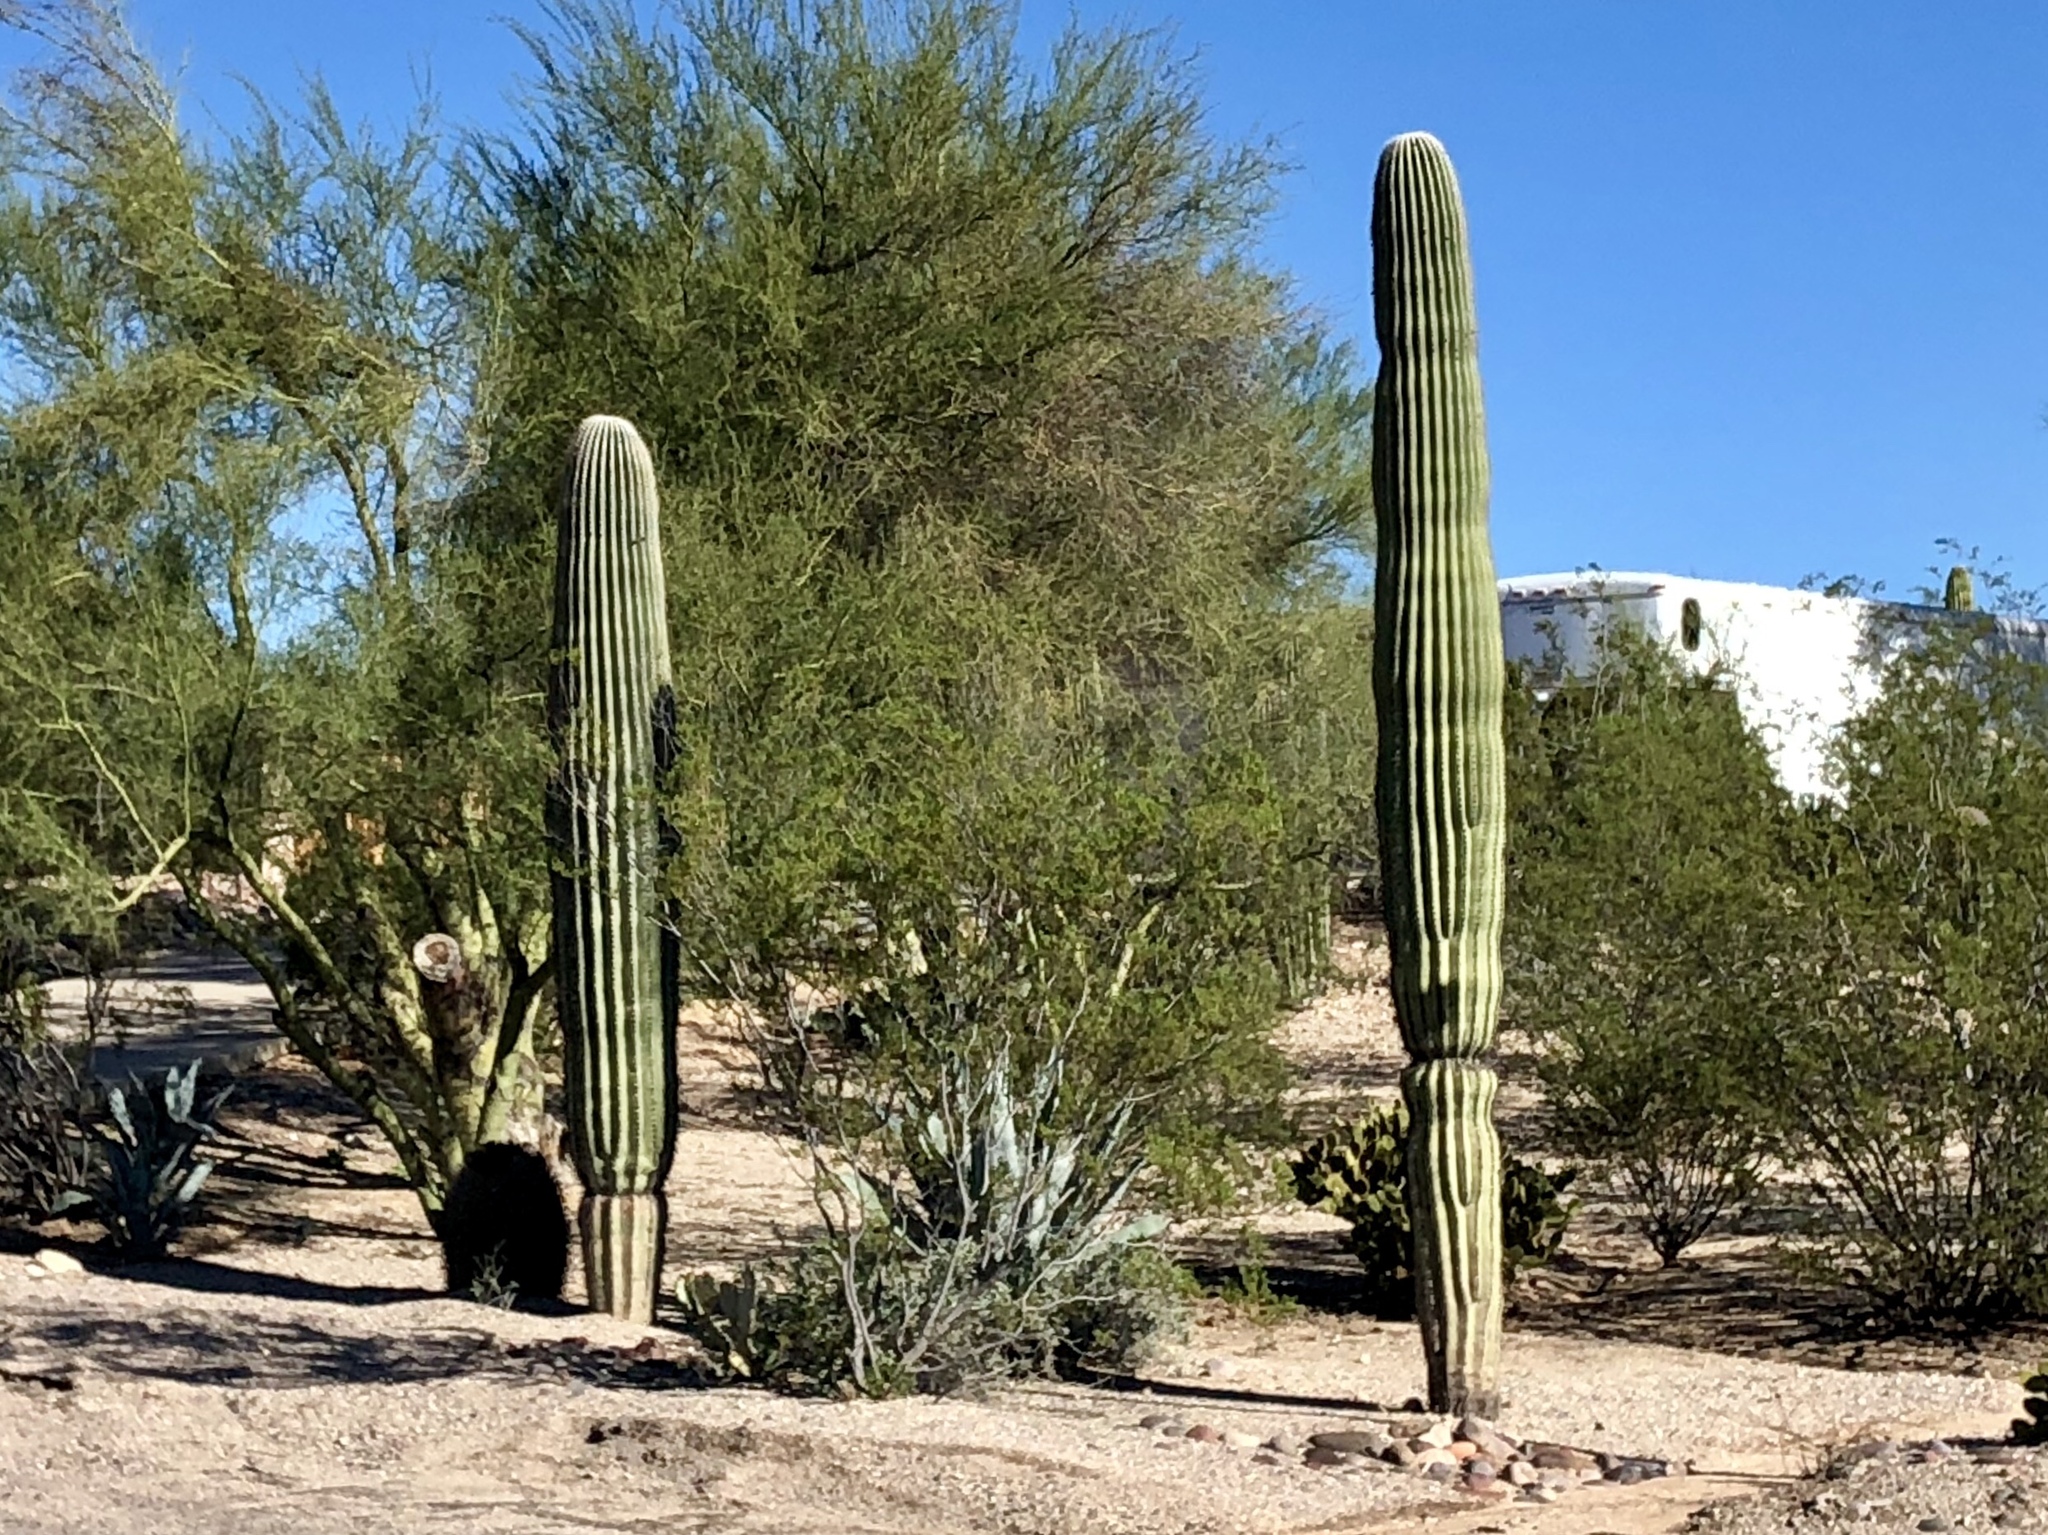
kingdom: Plantae
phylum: Tracheophyta
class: Magnoliopsida
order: Caryophyllales
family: Cactaceae
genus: Carnegiea
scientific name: Carnegiea gigantea
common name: Saguaro
